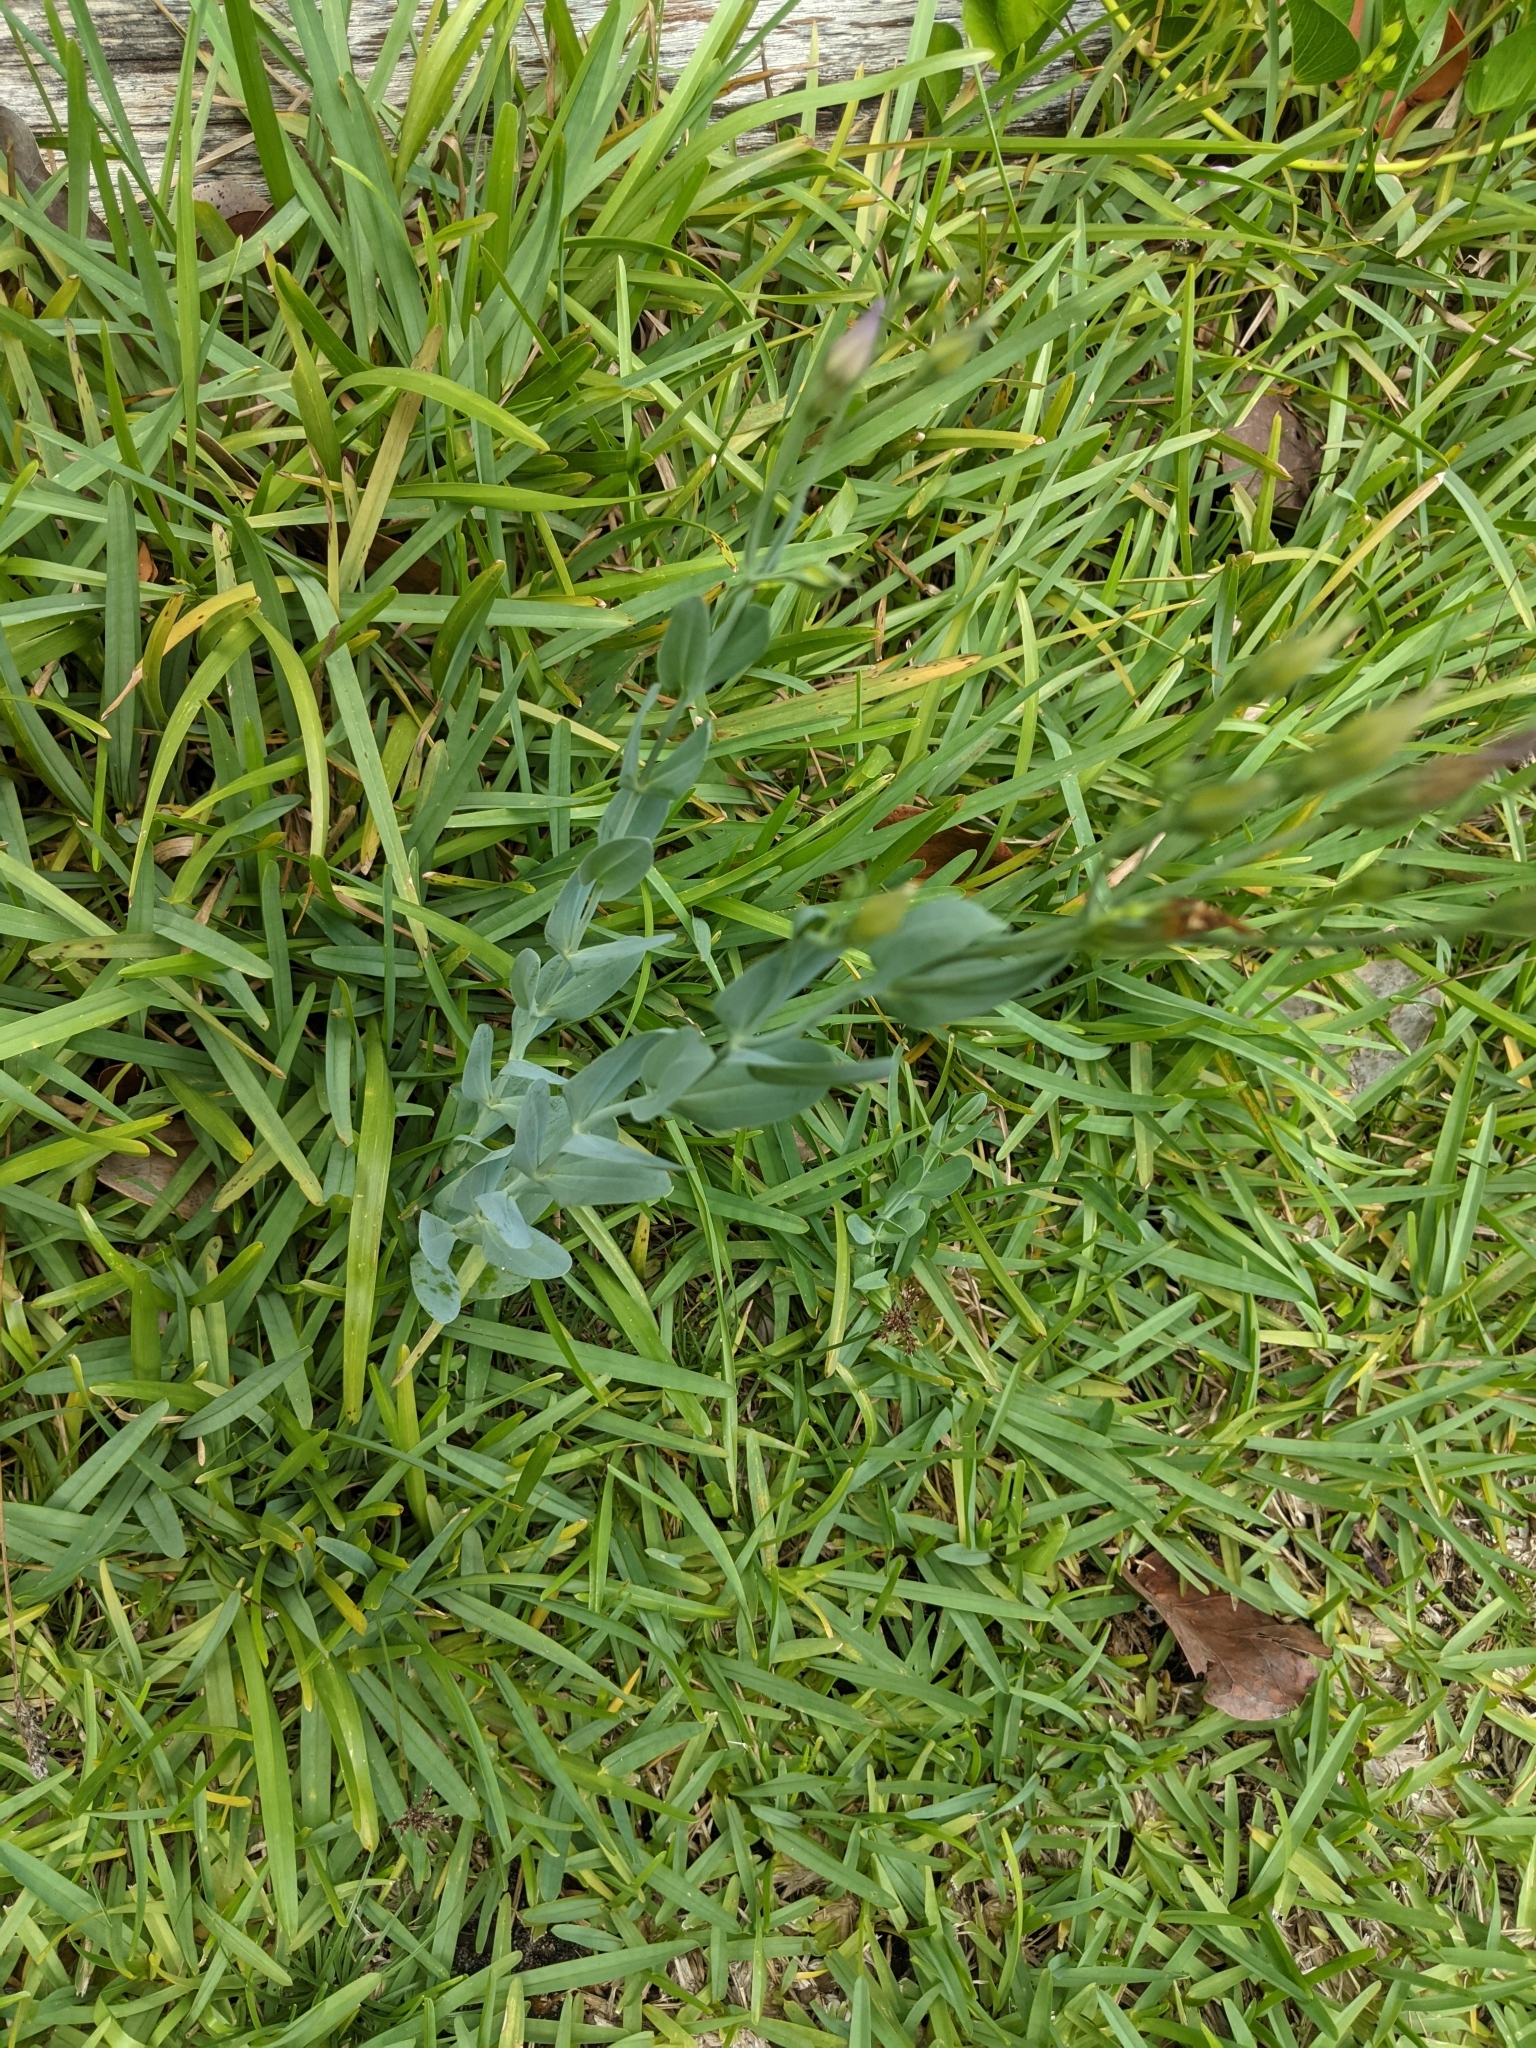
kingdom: Plantae
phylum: Tracheophyta
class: Magnoliopsida
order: Gentianales
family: Gentianaceae
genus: Eustoma
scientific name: Eustoma exaltatum
